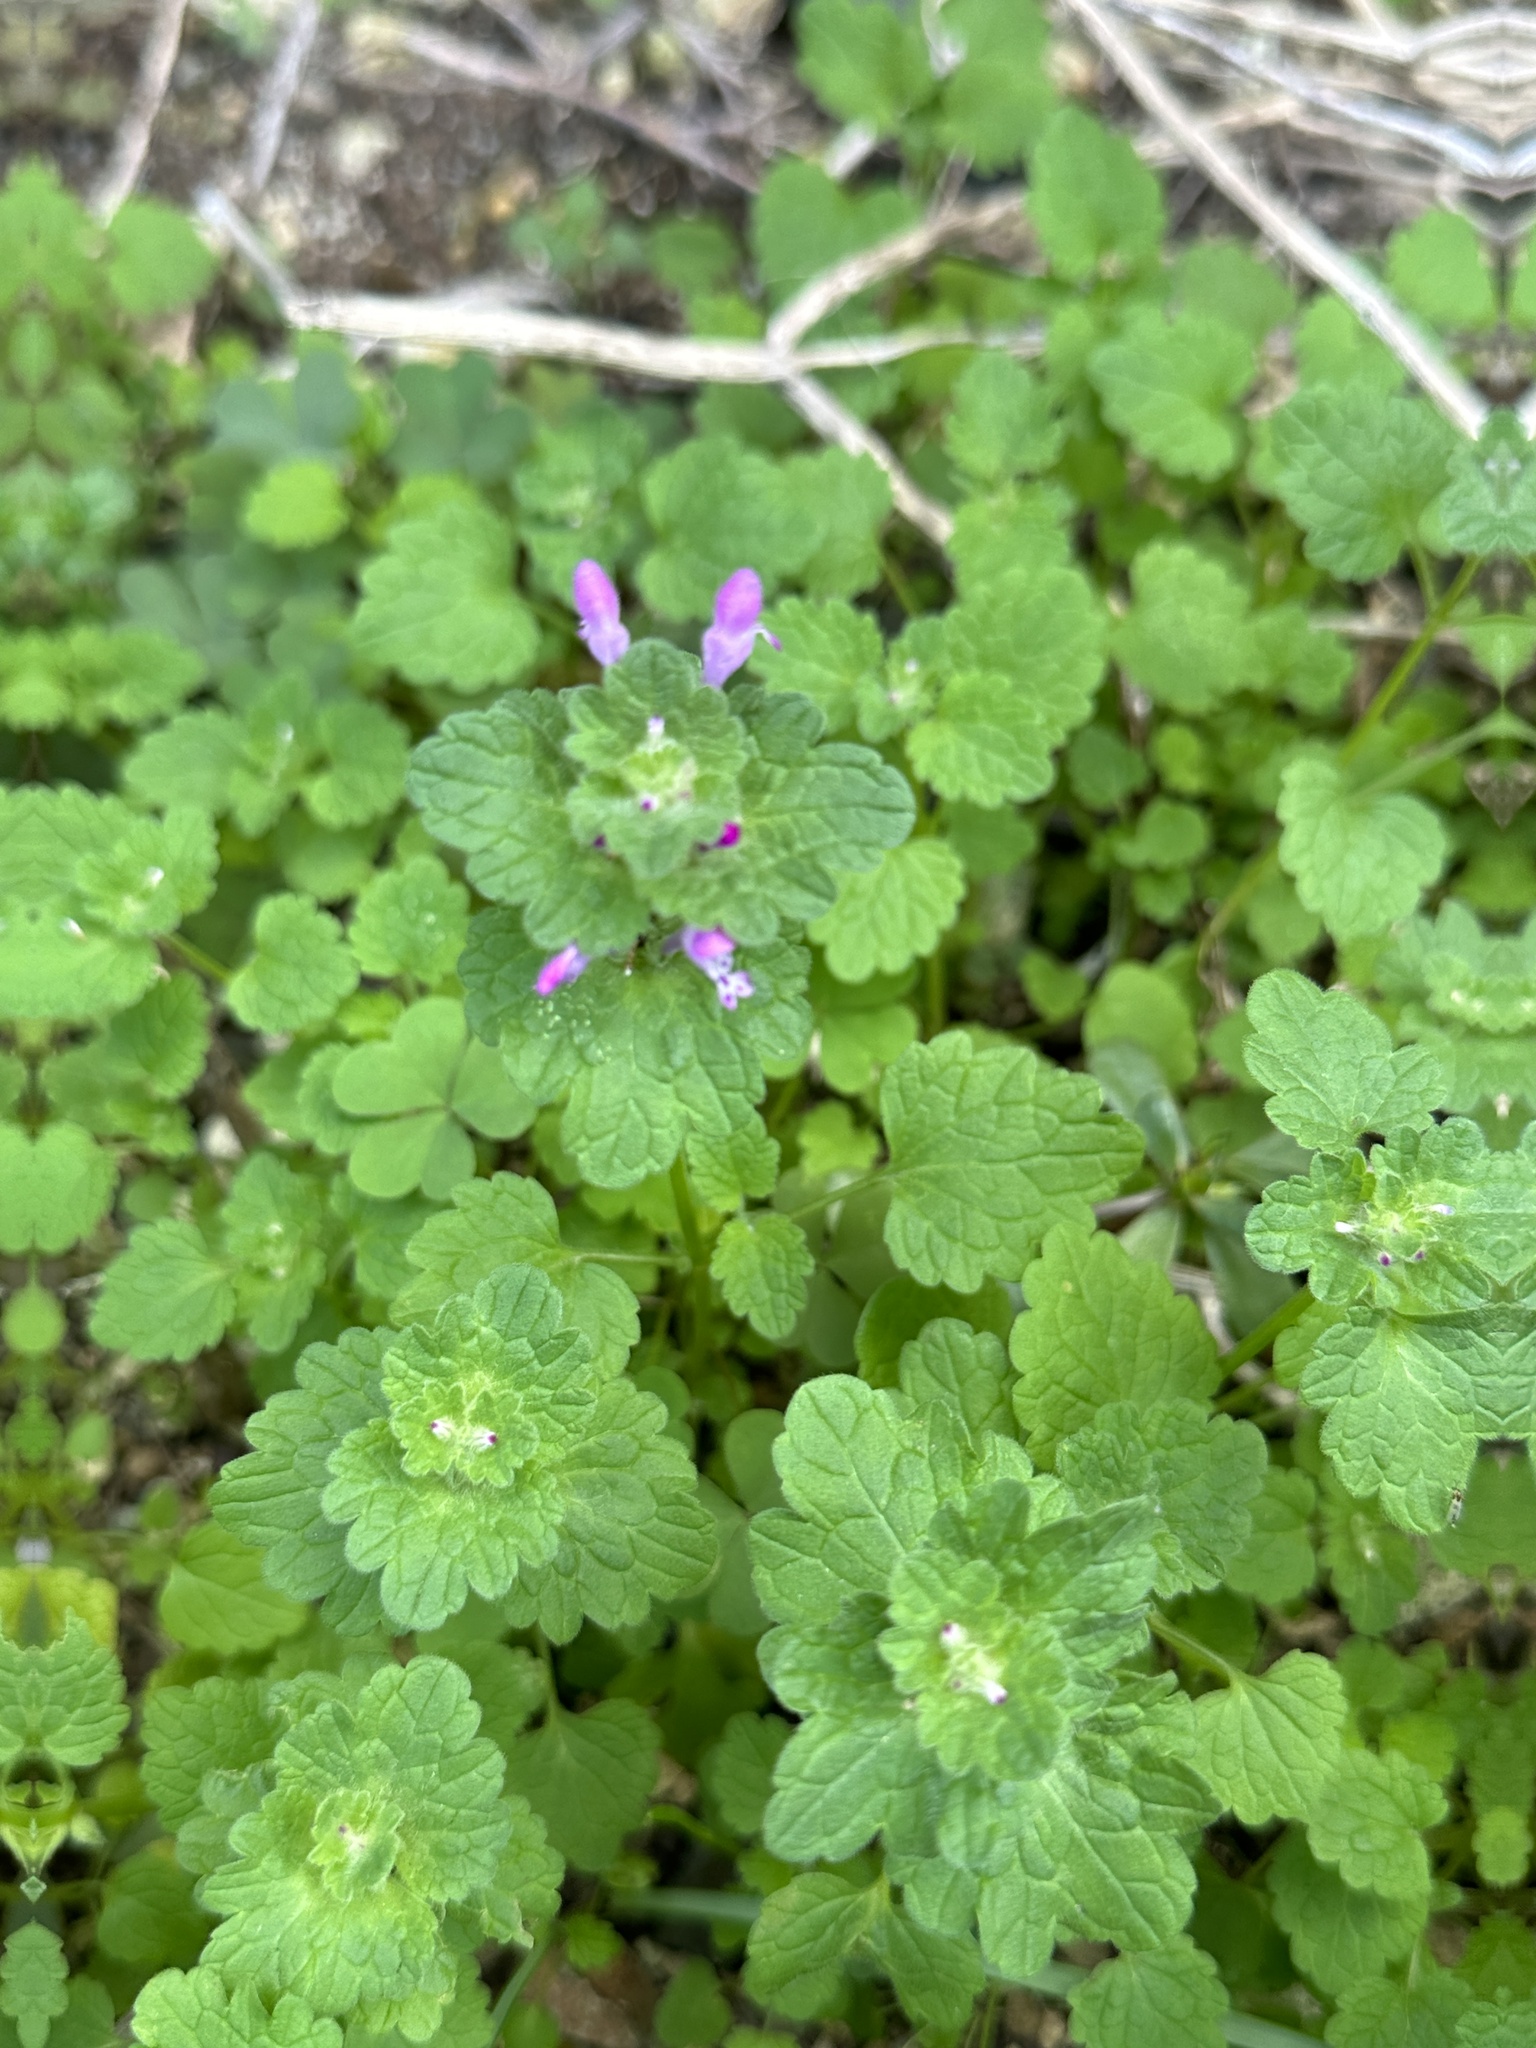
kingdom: Plantae
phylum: Tracheophyta
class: Magnoliopsida
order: Lamiales
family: Lamiaceae
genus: Lamium
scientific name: Lamium amplexicaule
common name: Henbit dead-nettle
